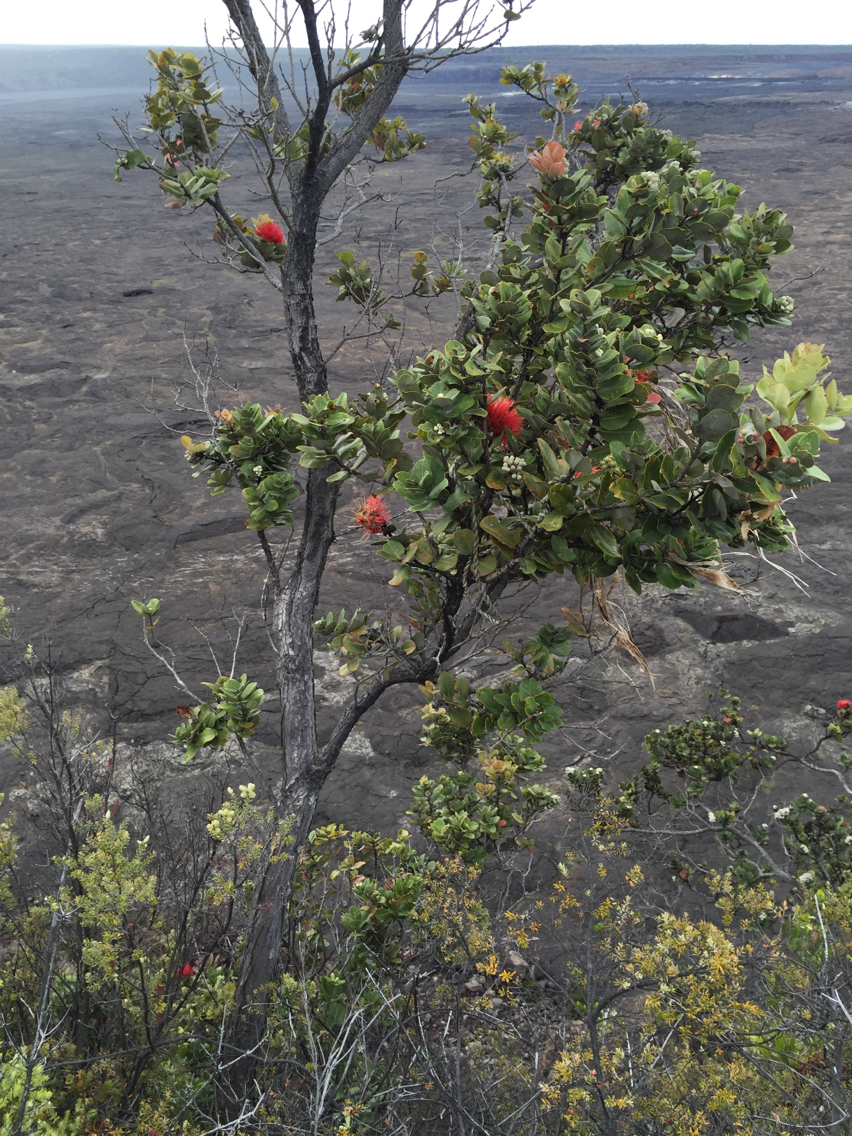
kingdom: Plantae
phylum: Tracheophyta
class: Magnoliopsida
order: Myrtales
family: Myrtaceae
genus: Metrosideros
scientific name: Metrosideros polymorpha
